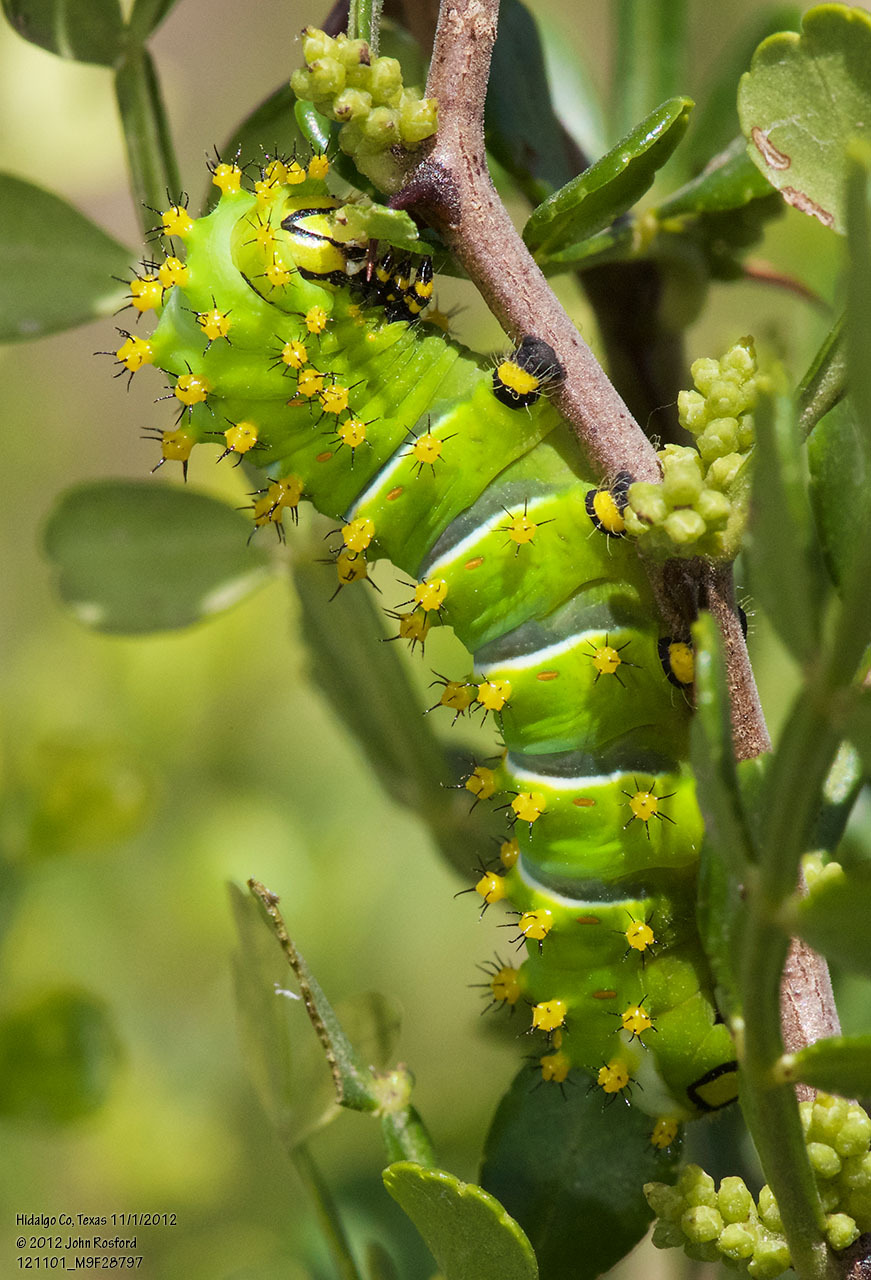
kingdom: Animalia
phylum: Arthropoda
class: Insecta
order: Lepidoptera
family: Saturniidae
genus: Rothschildia
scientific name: Rothschildia lebeau
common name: Lebeau's rothschildia
